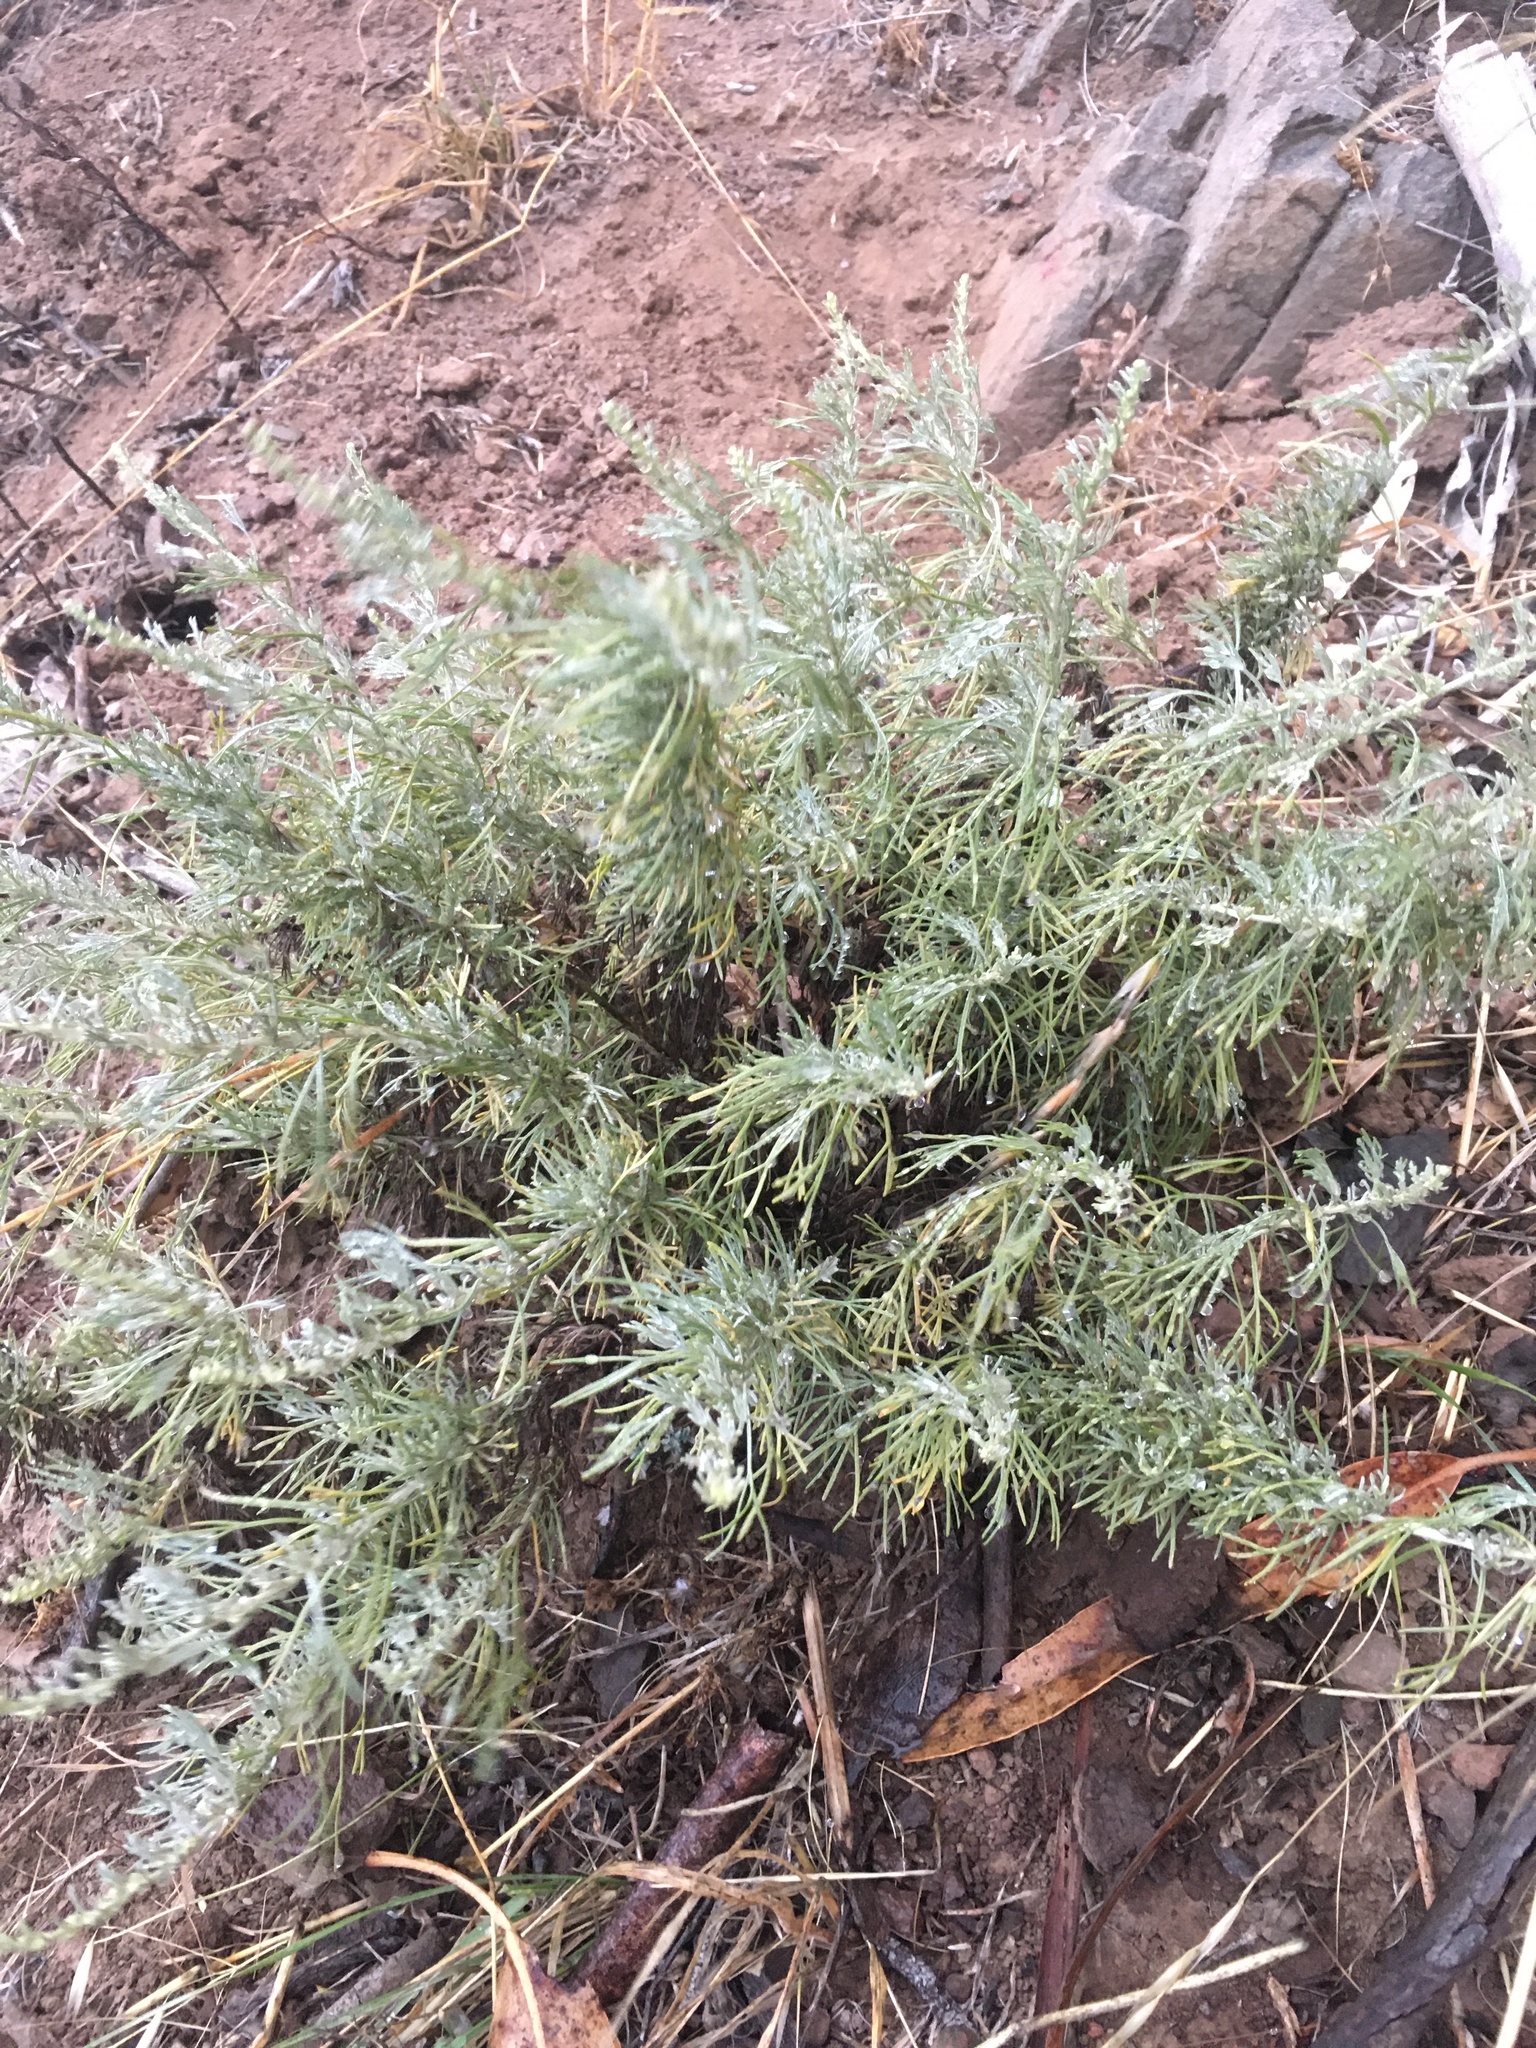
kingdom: Plantae
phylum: Tracheophyta
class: Magnoliopsida
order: Asterales
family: Asteraceae
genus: Artemisia
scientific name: Artemisia californica
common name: California sagebrush
